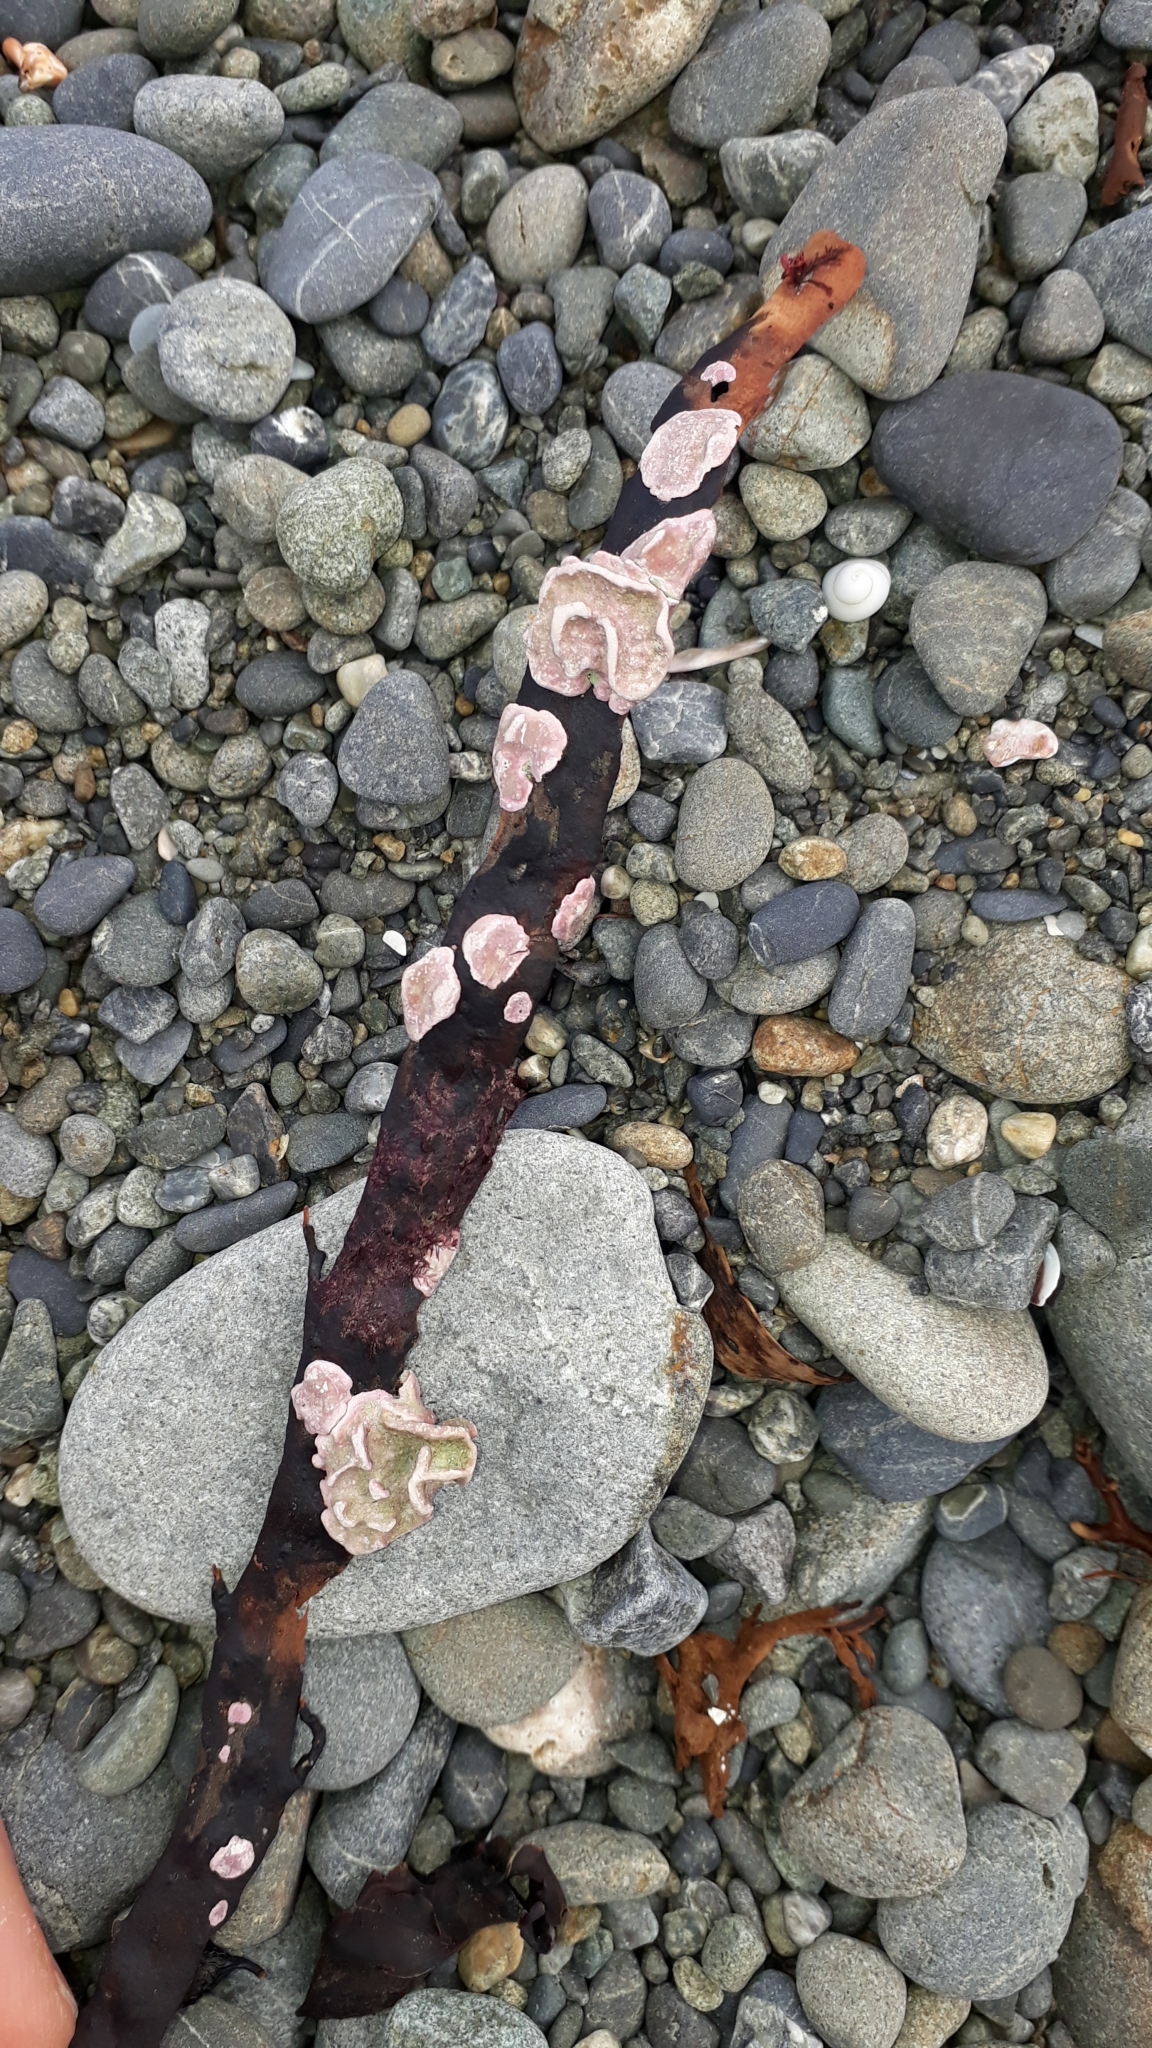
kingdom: Plantae
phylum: Rhodophyta
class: Florideophyceae
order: Corallinales
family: Lithophyllaceae
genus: Lithophyllum
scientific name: Lithophyllum carpophylli
